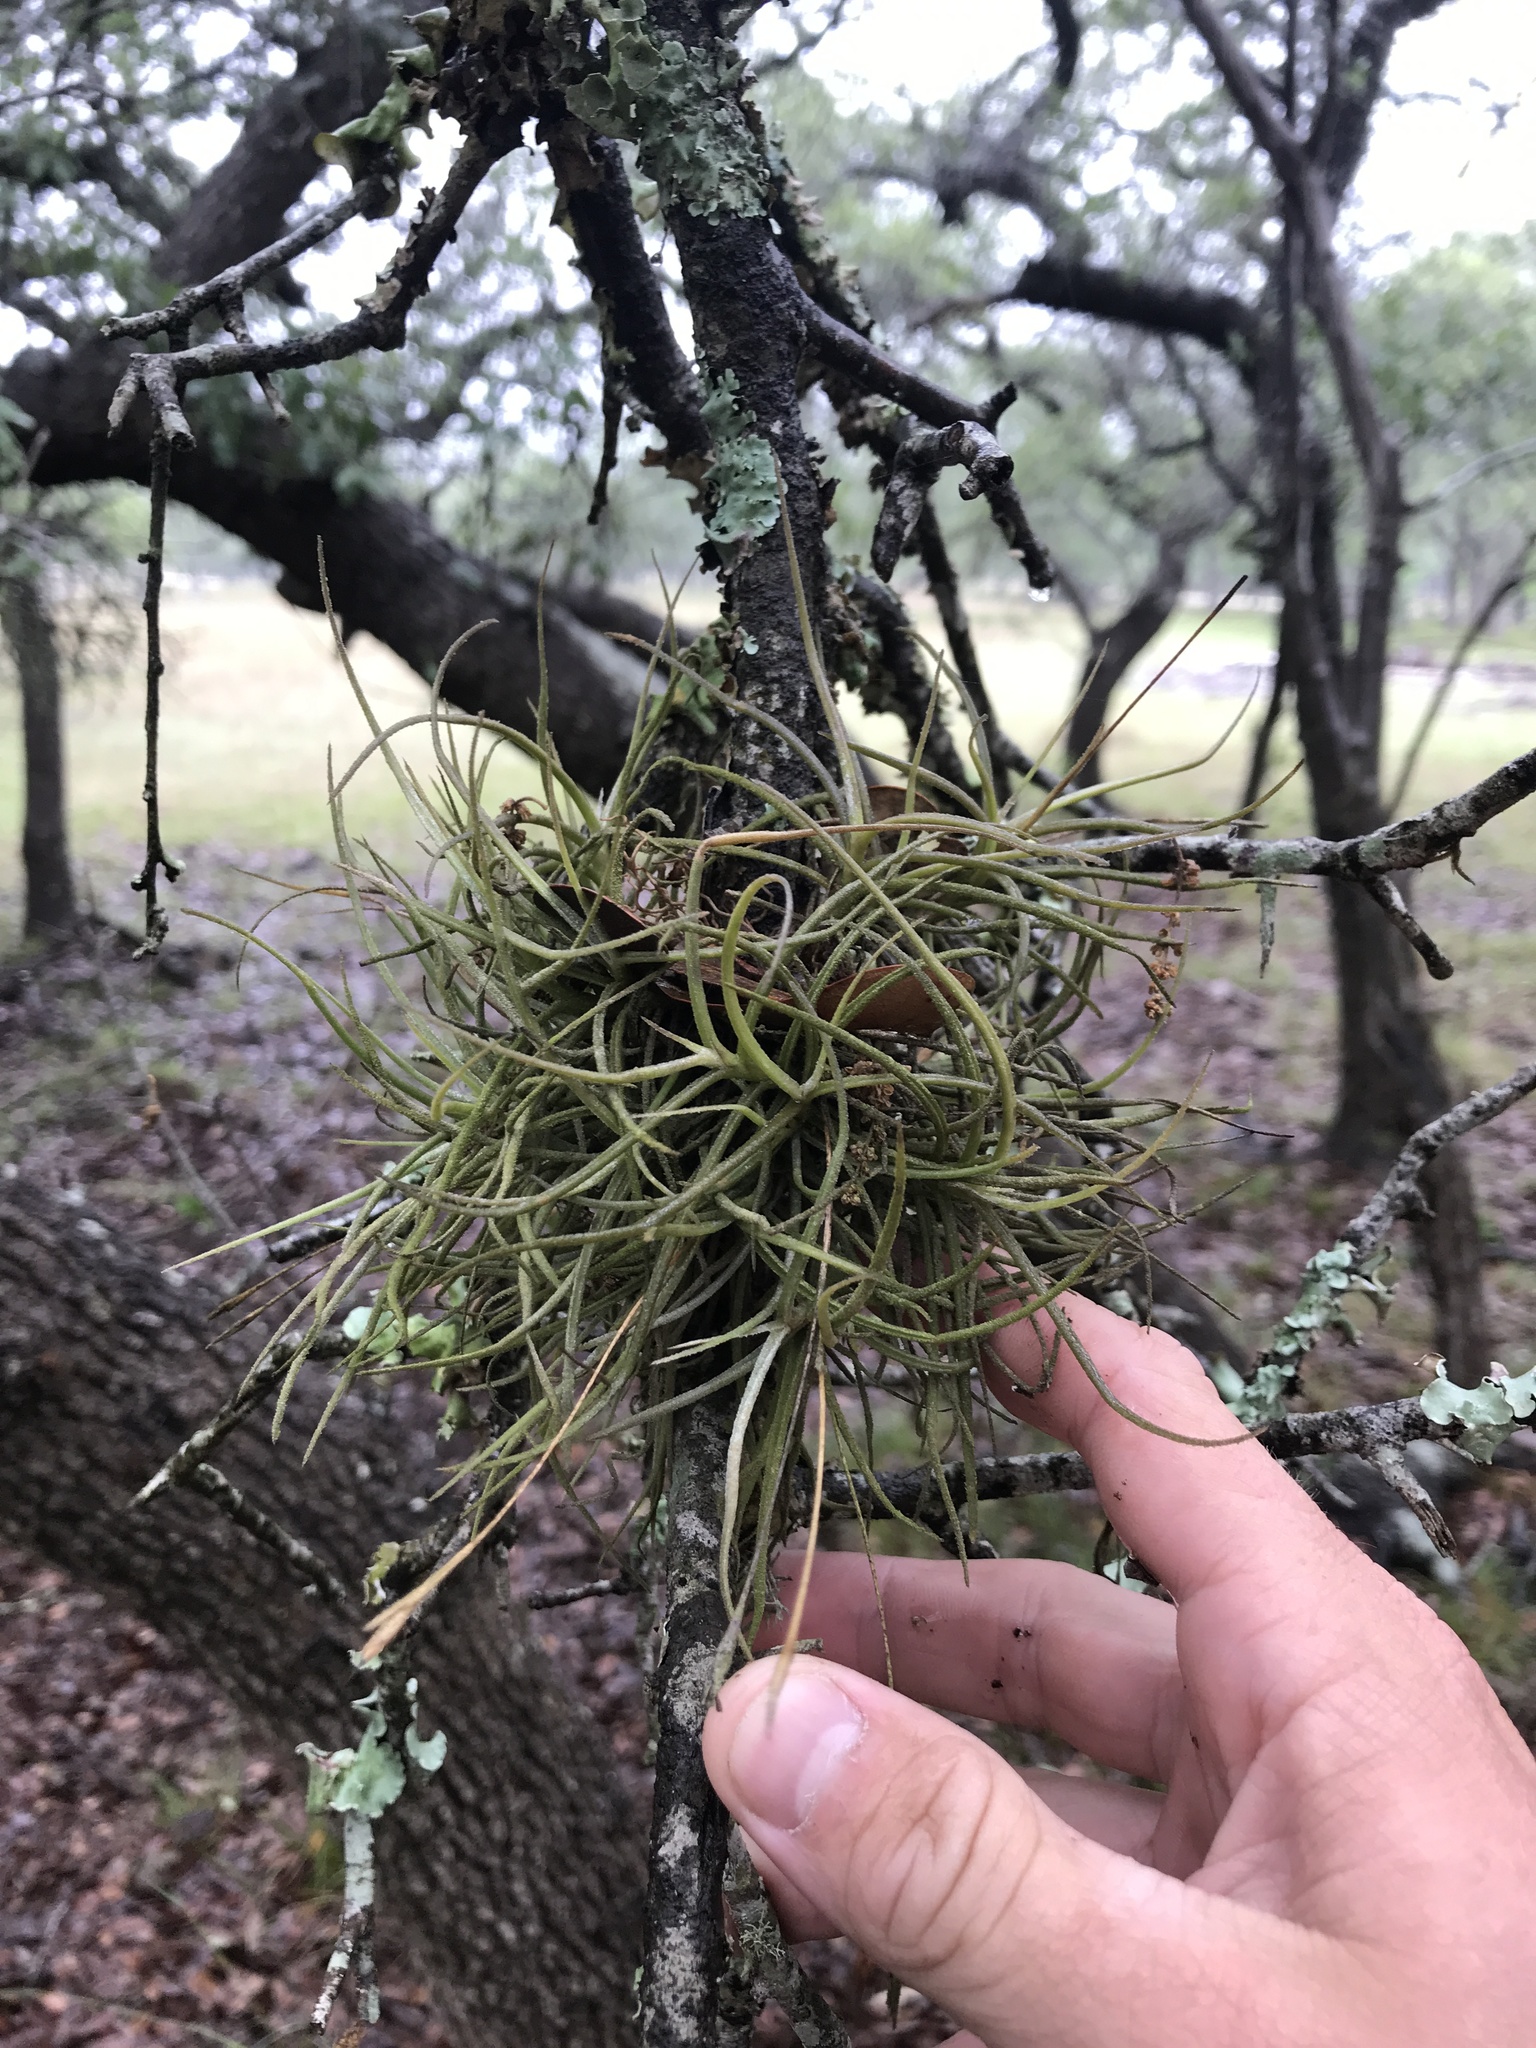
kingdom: Plantae
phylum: Tracheophyta
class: Liliopsida
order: Poales
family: Bromeliaceae
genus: Tillandsia
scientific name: Tillandsia recurvata
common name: Small ballmoss
